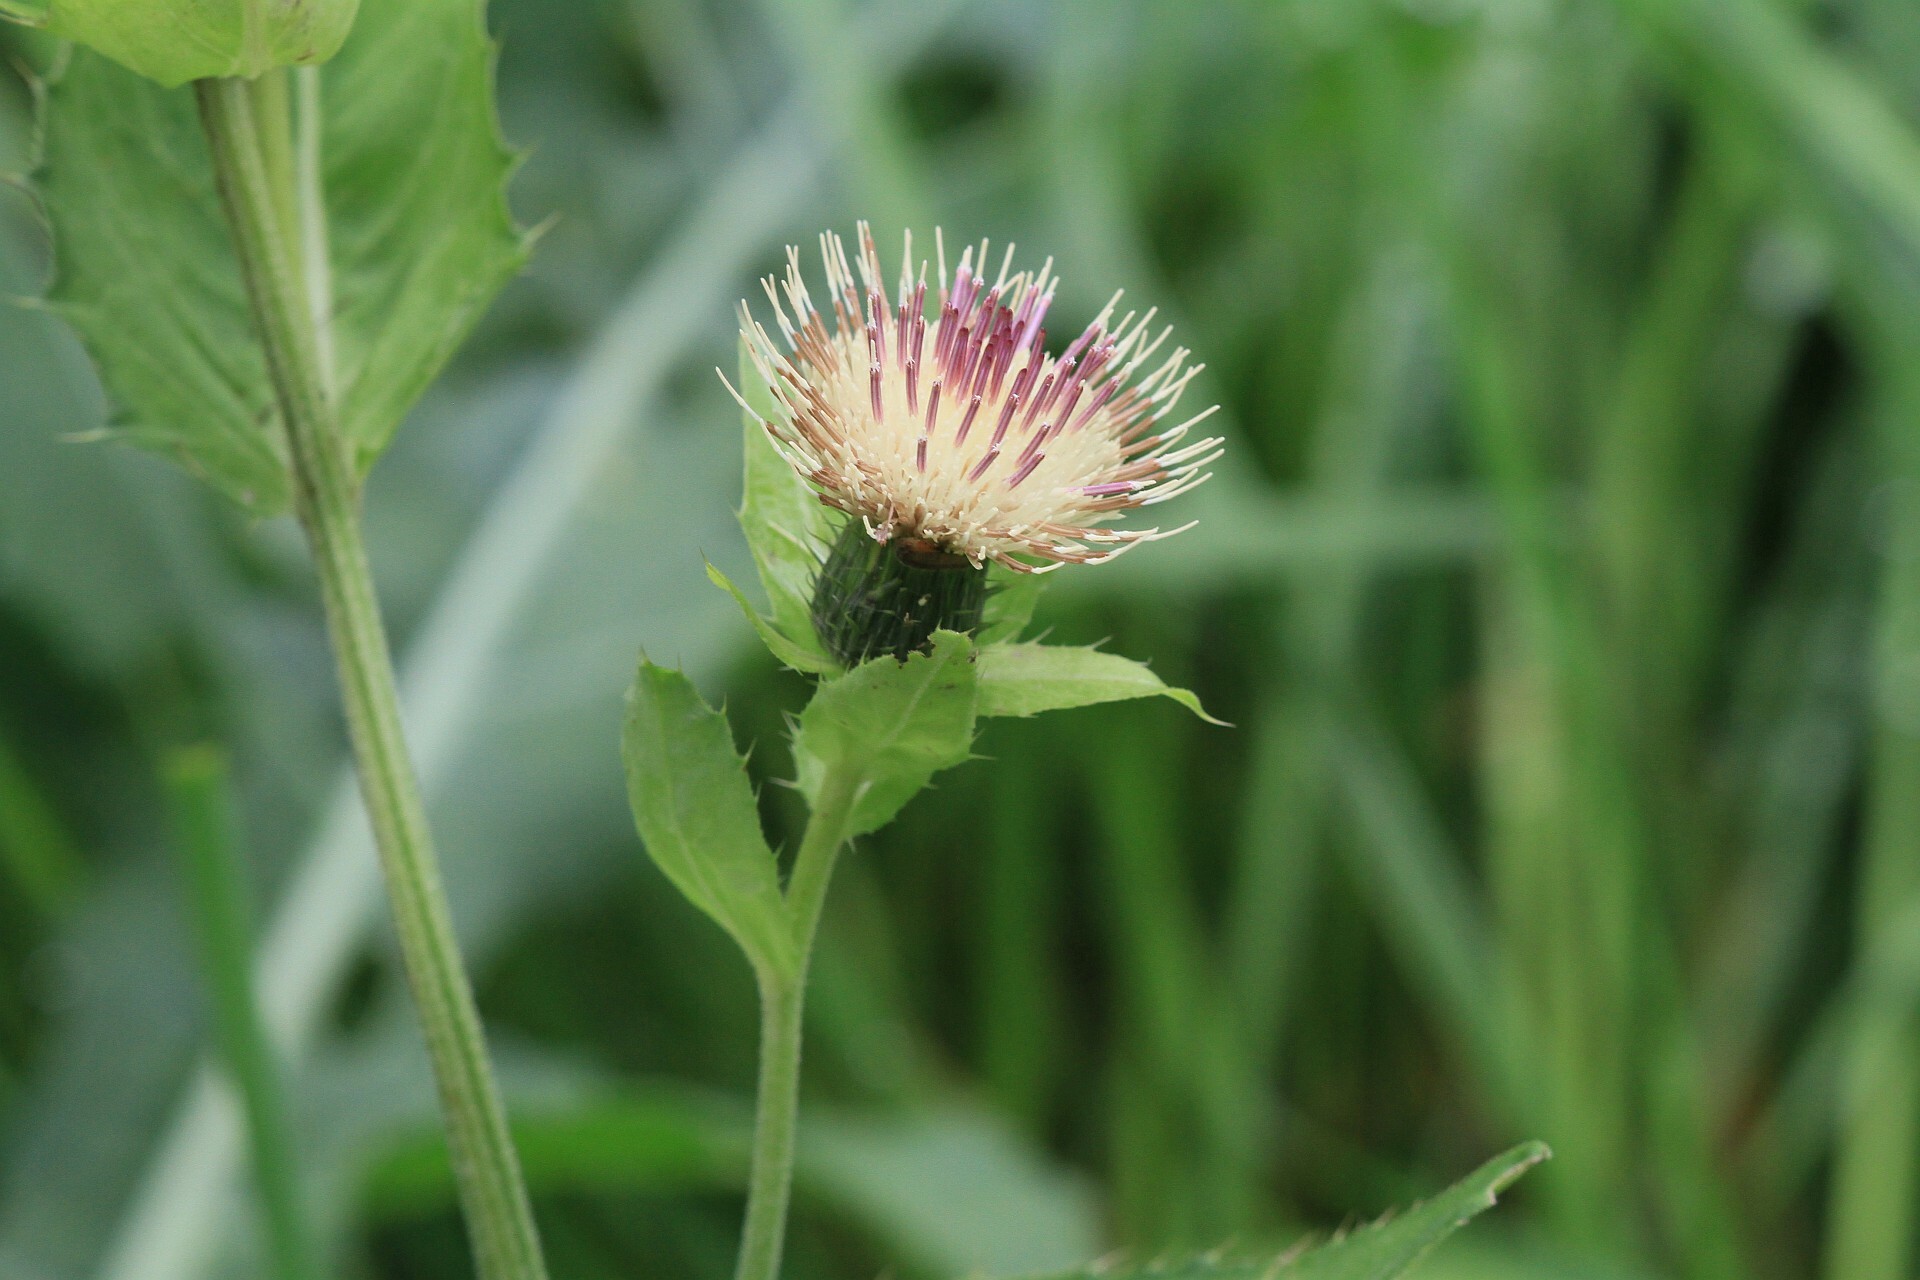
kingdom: Plantae
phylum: Tracheophyta
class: Magnoliopsida
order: Asterales
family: Asteraceae
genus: Cirsium
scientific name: Cirsium oleraceum
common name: Cabbage thistle
